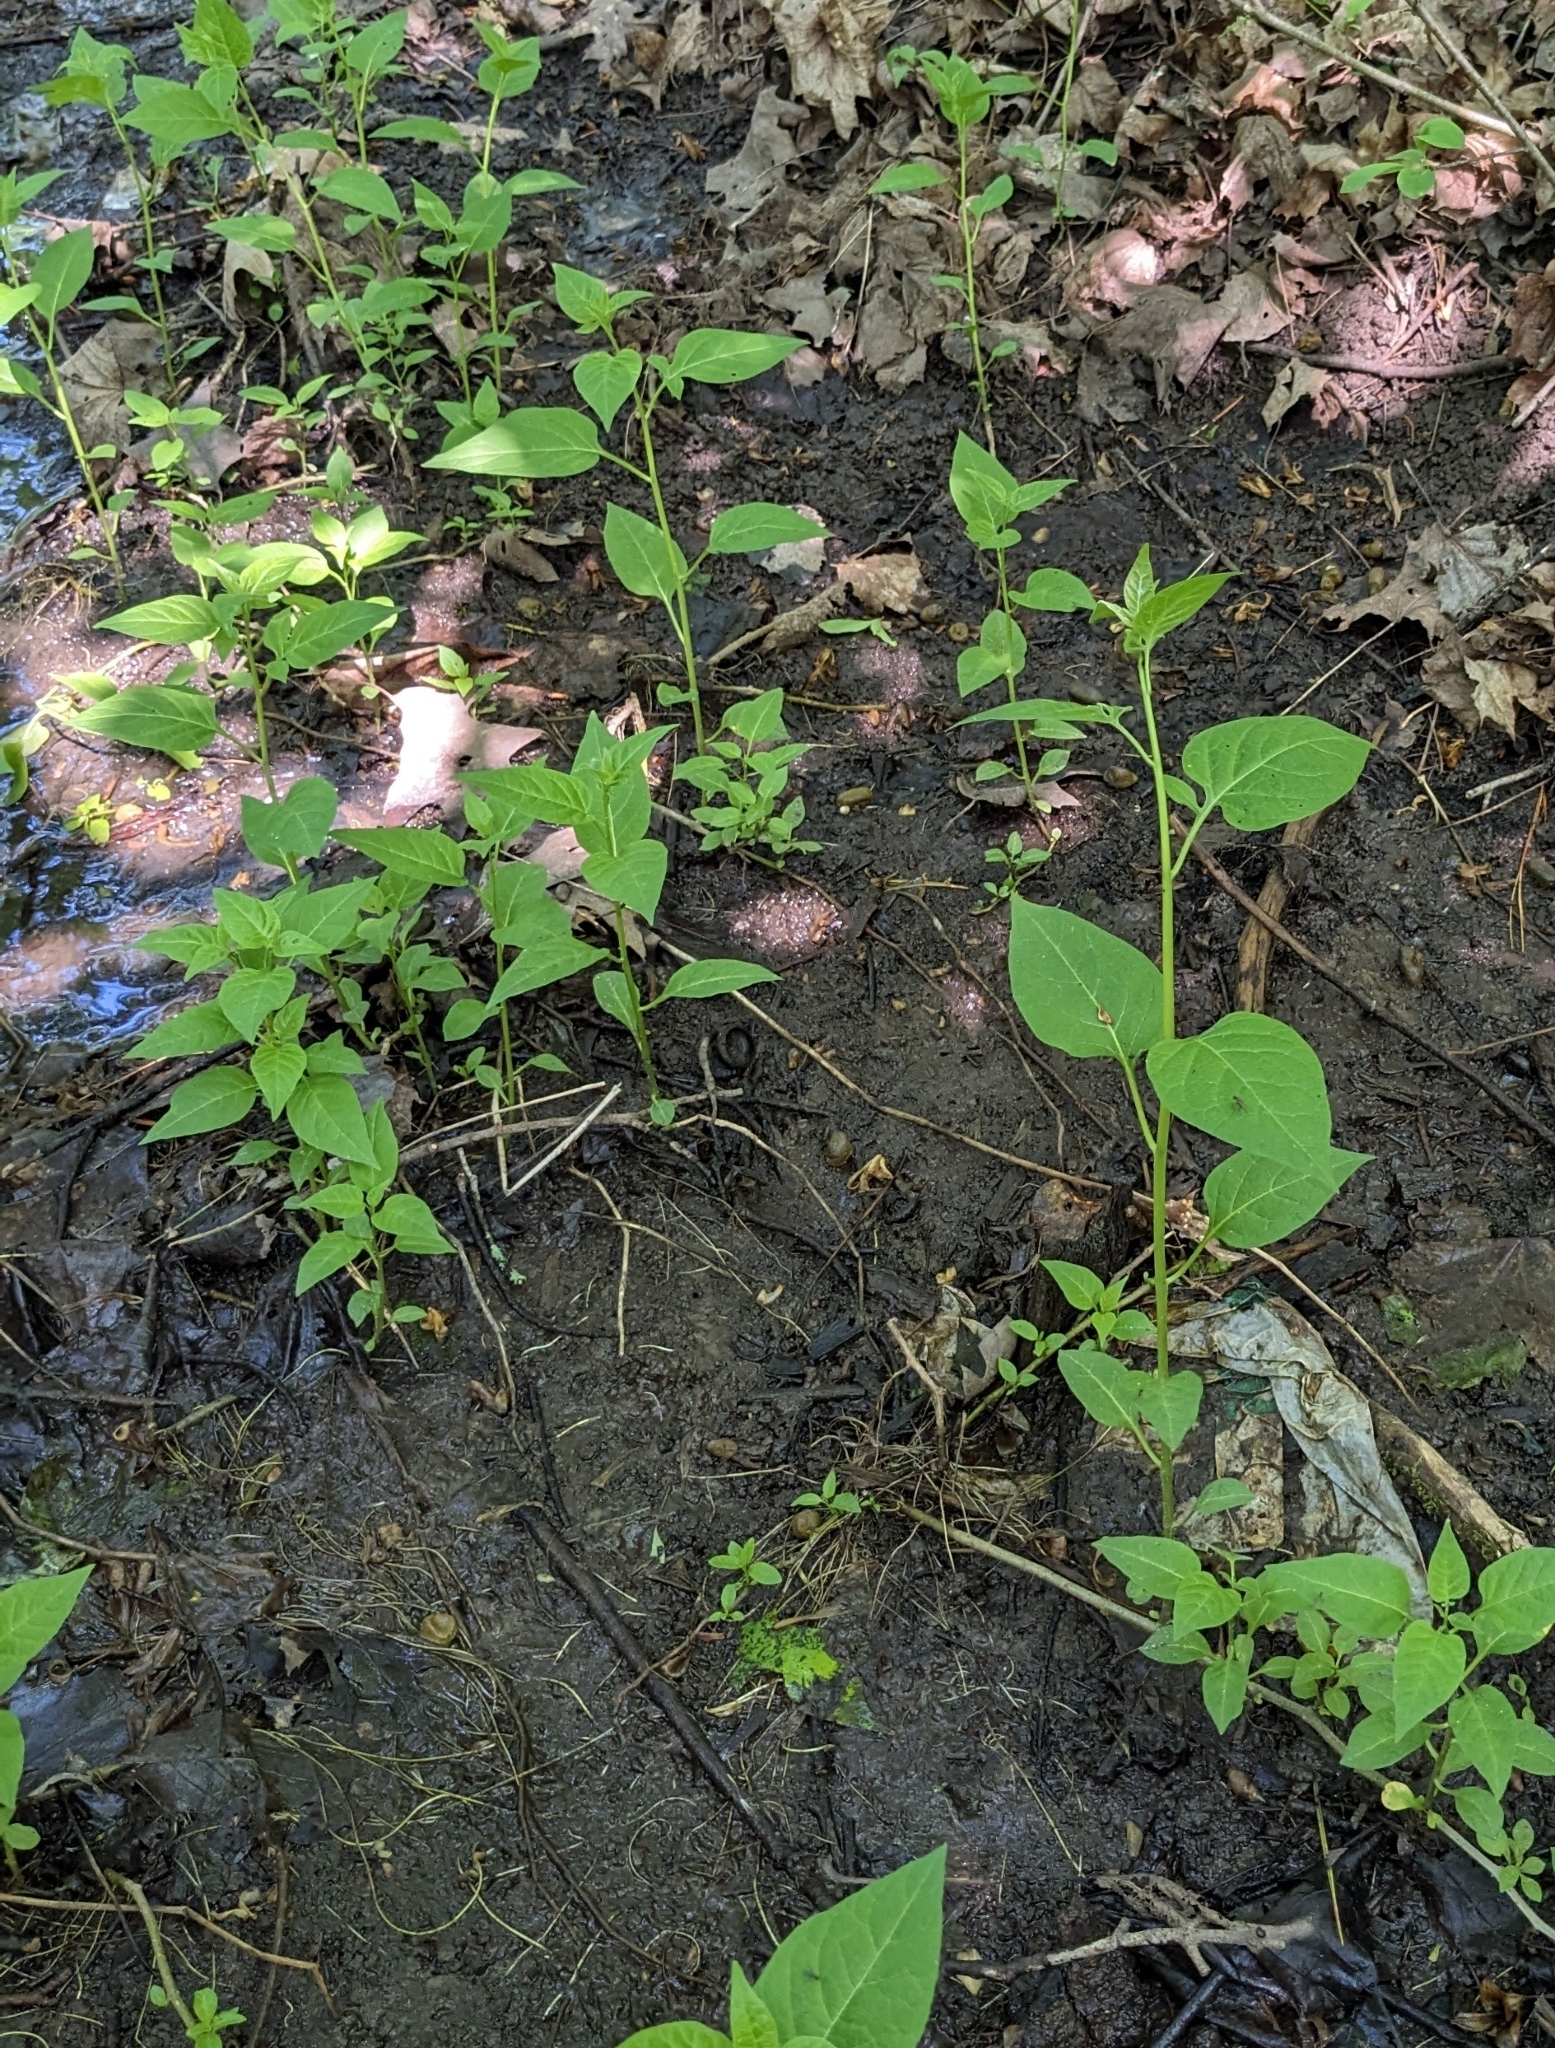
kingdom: Plantae
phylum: Tracheophyta
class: Magnoliopsida
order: Solanales
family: Solanaceae
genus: Solanum
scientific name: Solanum dulcamara
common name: Climbing nightshade
